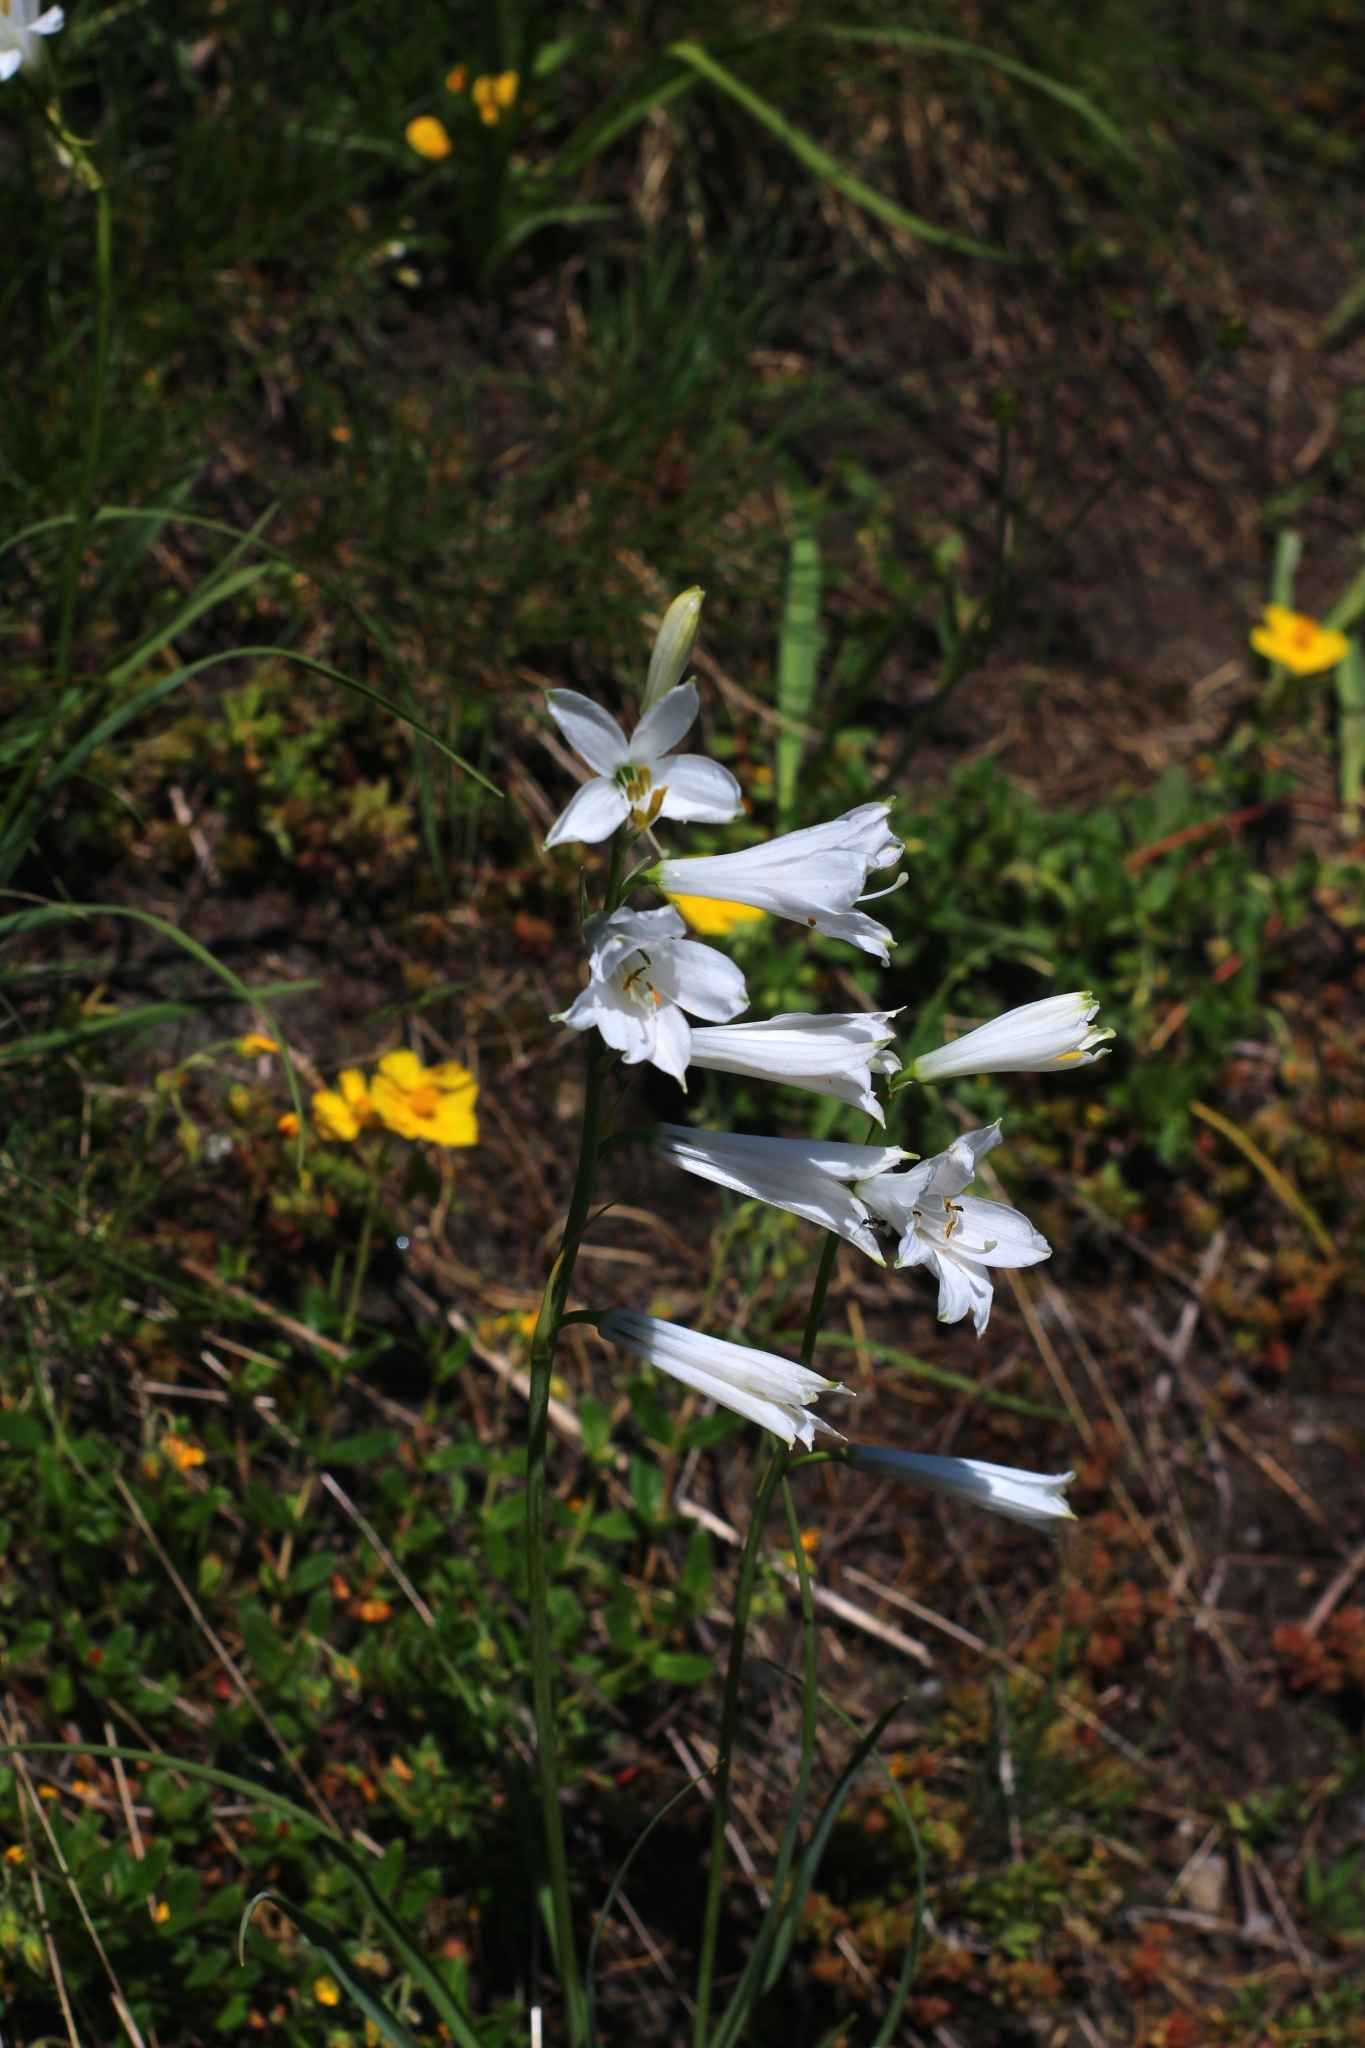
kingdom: Plantae
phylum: Tracheophyta
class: Liliopsida
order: Asparagales
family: Asparagaceae
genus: Paradisea
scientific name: Paradisea liliastrum
